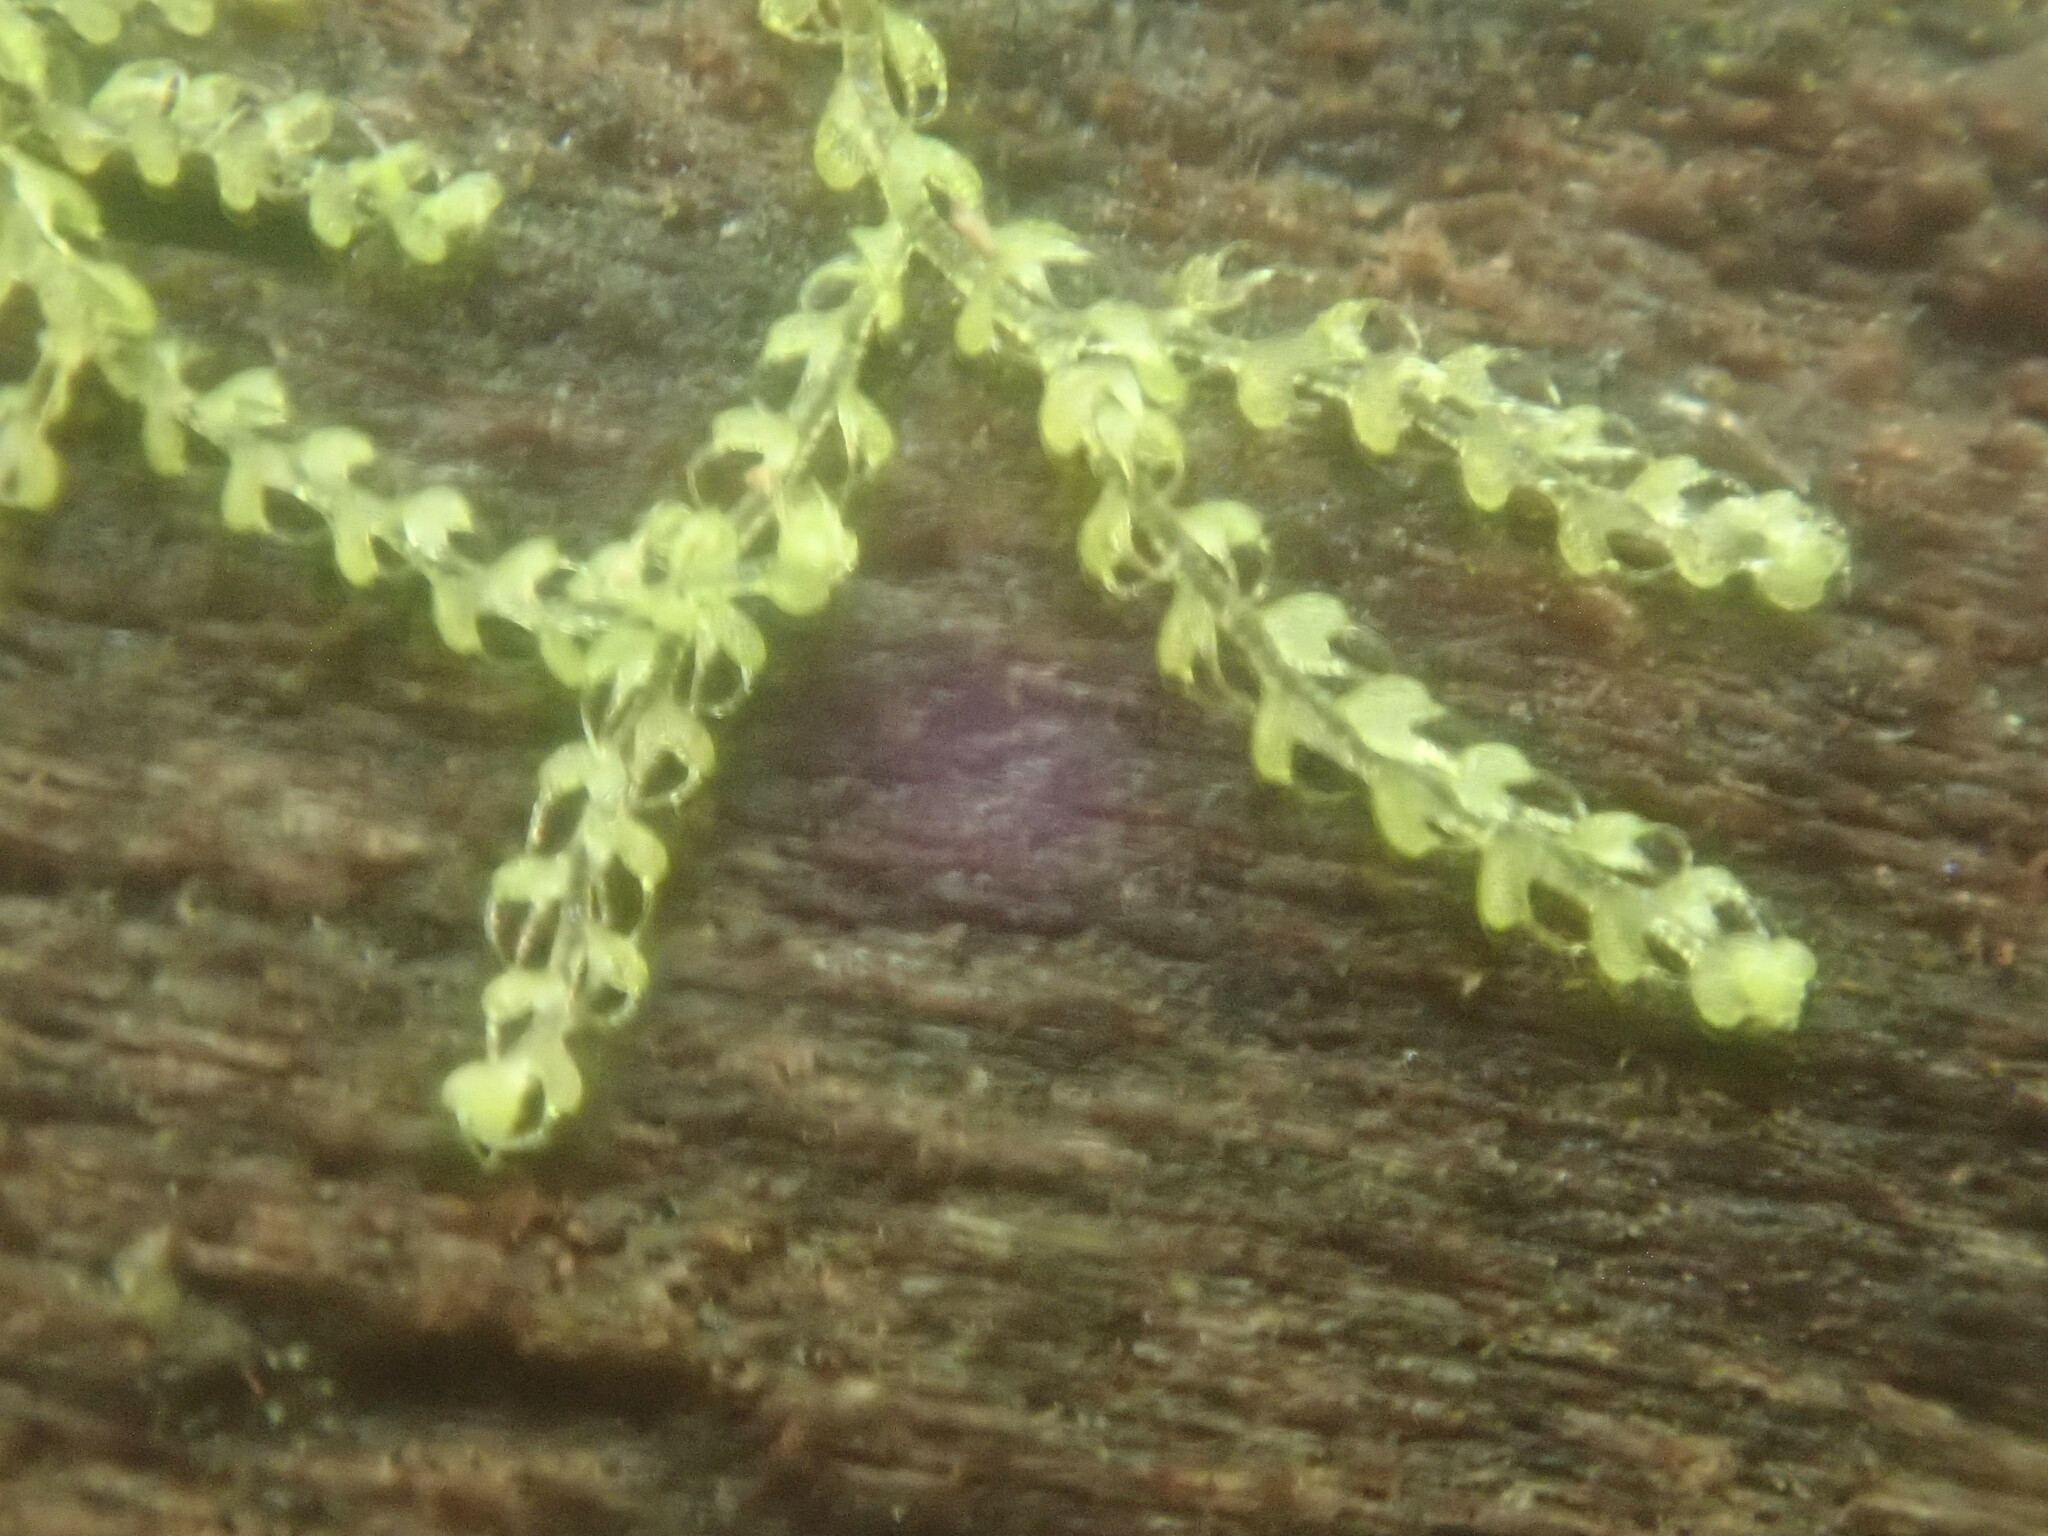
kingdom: Plantae
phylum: Marchantiophyta
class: Jungermanniopsida
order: Jungermanniales
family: Cephaloziaceae
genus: Nowellia
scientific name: Nowellia curvifolia
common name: Wood rustwort
